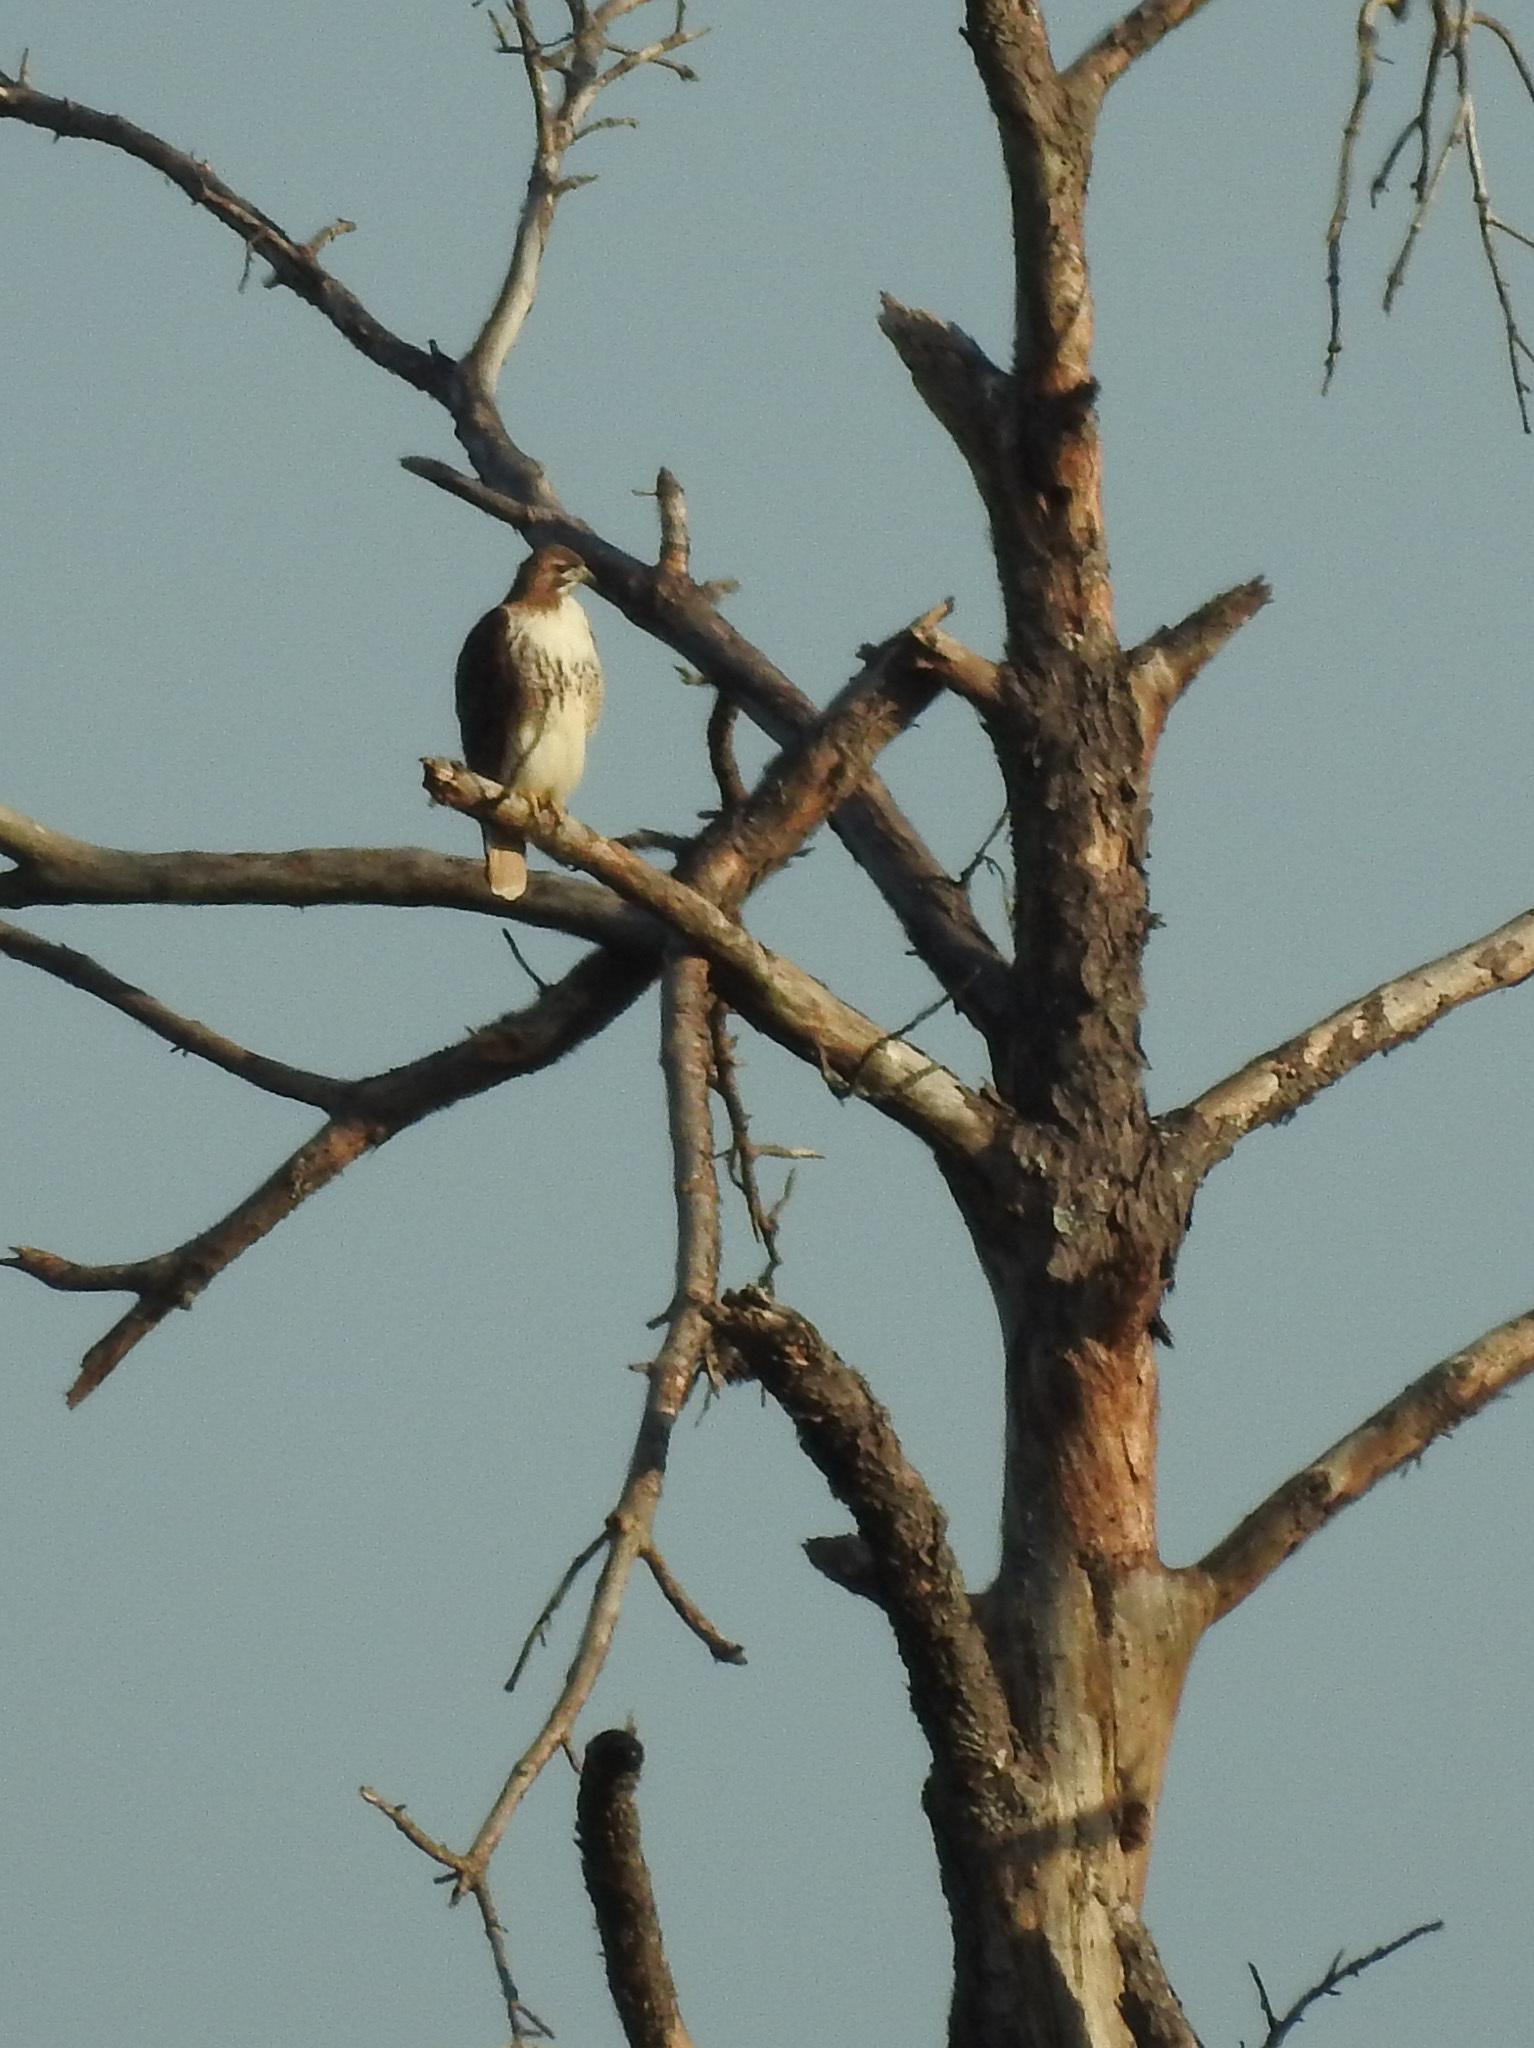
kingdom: Animalia
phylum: Chordata
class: Aves
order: Accipitriformes
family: Accipitridae
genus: Buteo
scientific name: Buteo jamaicensis
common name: Red-tailed hawk
